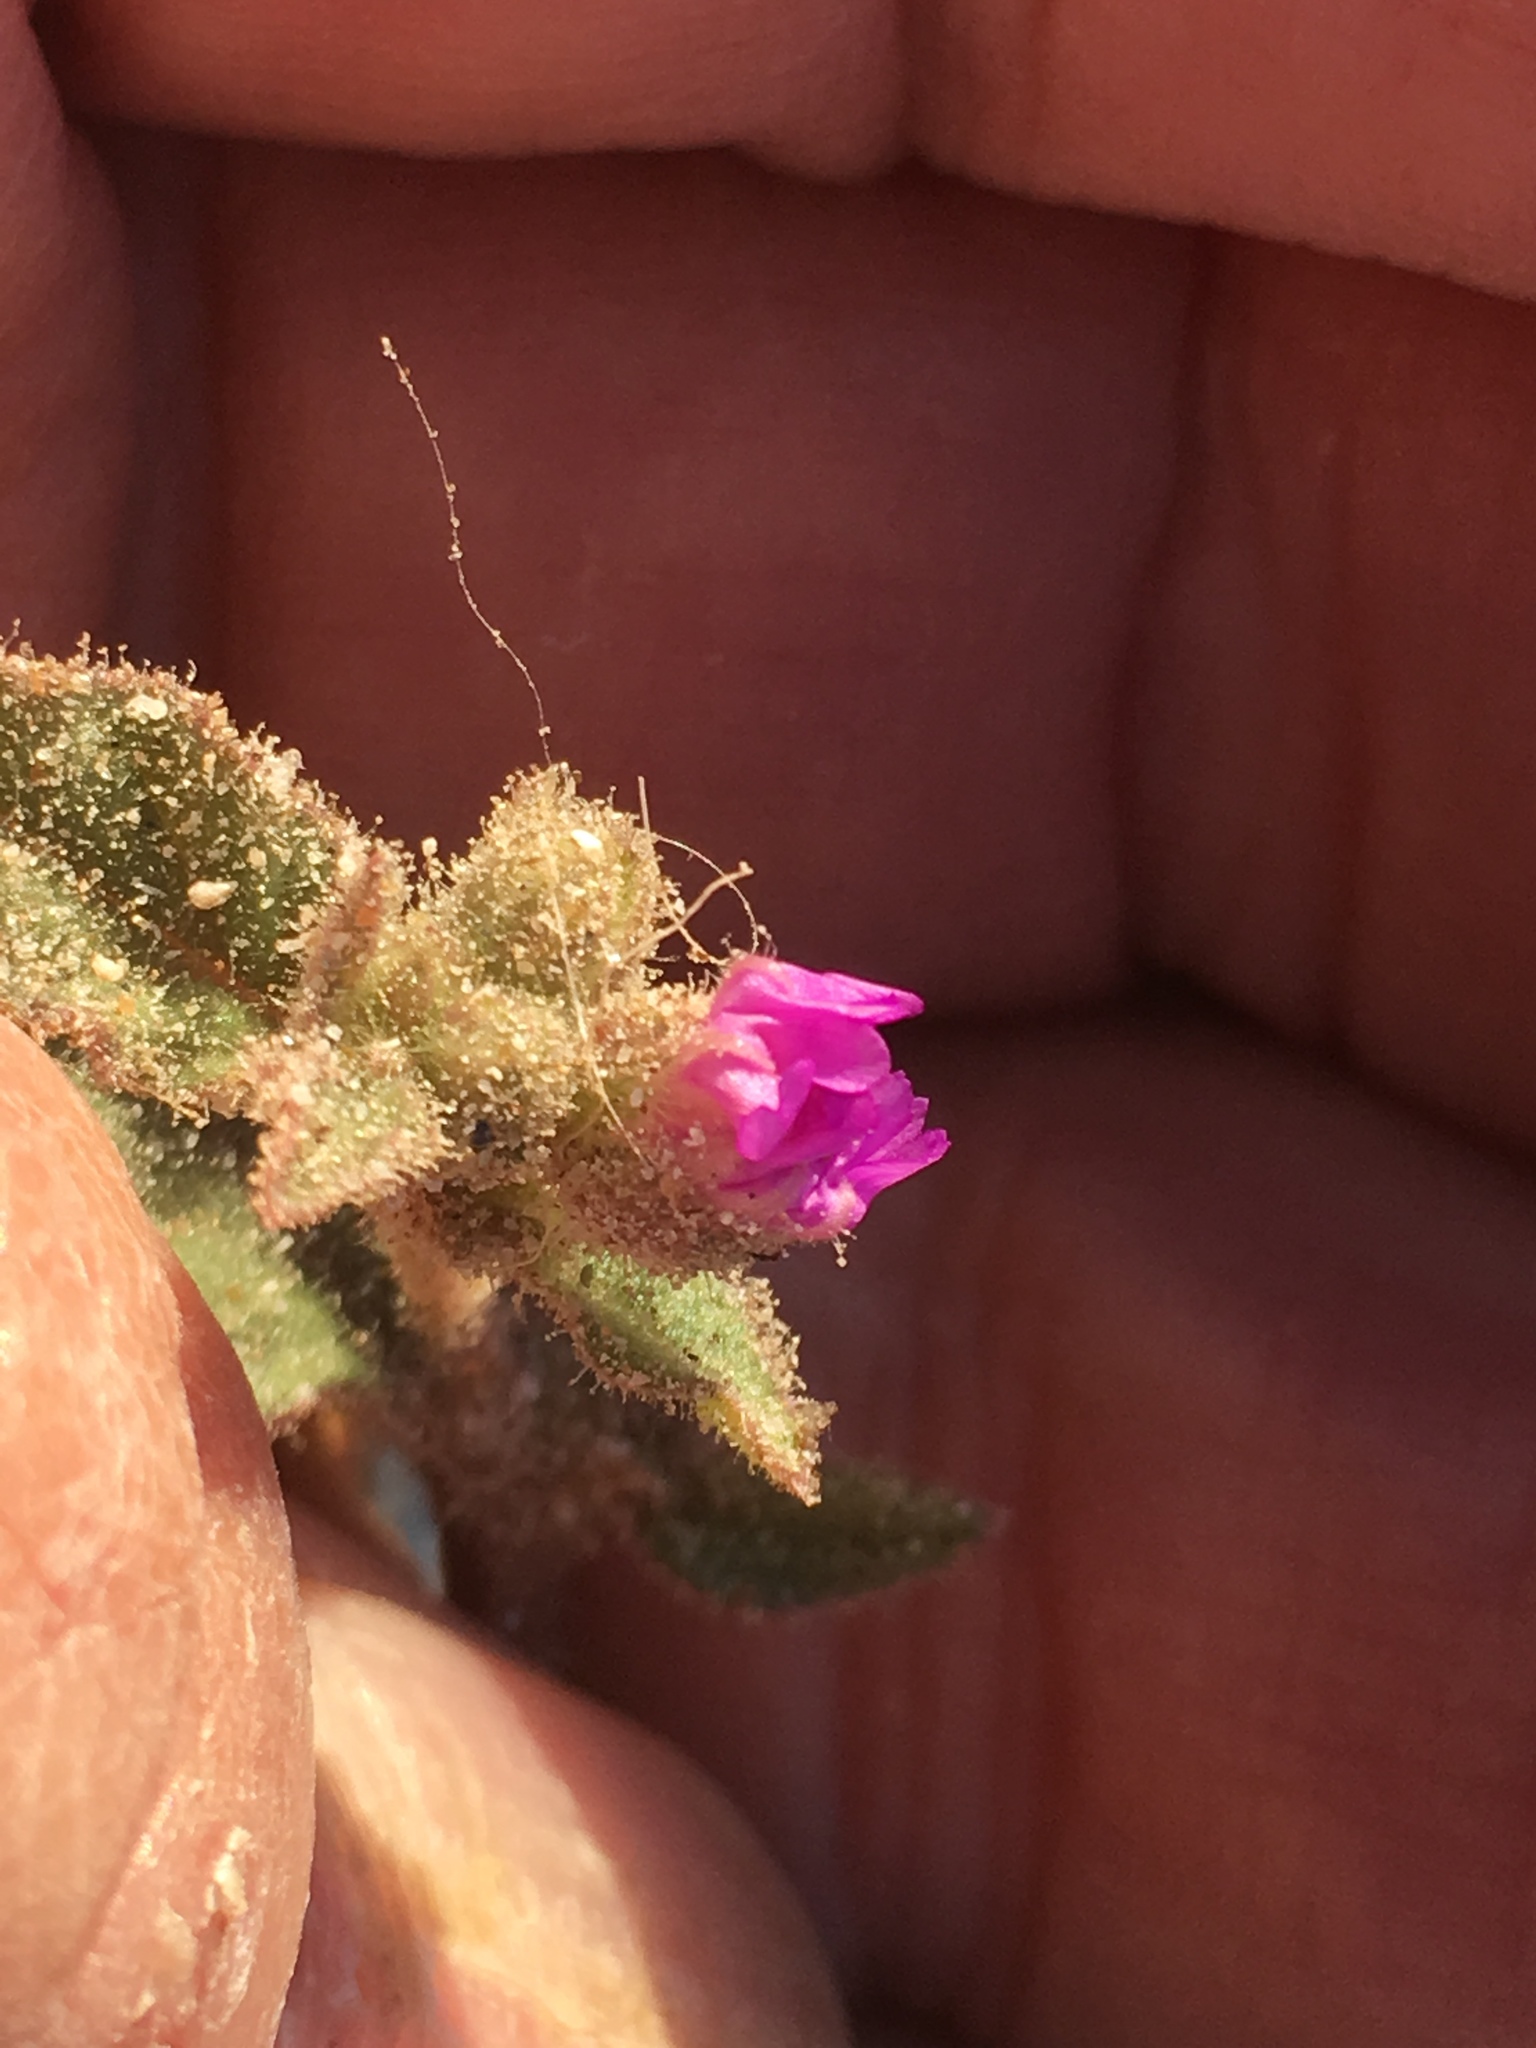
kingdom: Plantae
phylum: Tracheophyta
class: Magnoliopsida
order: Caryophyllales
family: Nyctaginaceae
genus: Allionia
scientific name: Allionia incarnata
